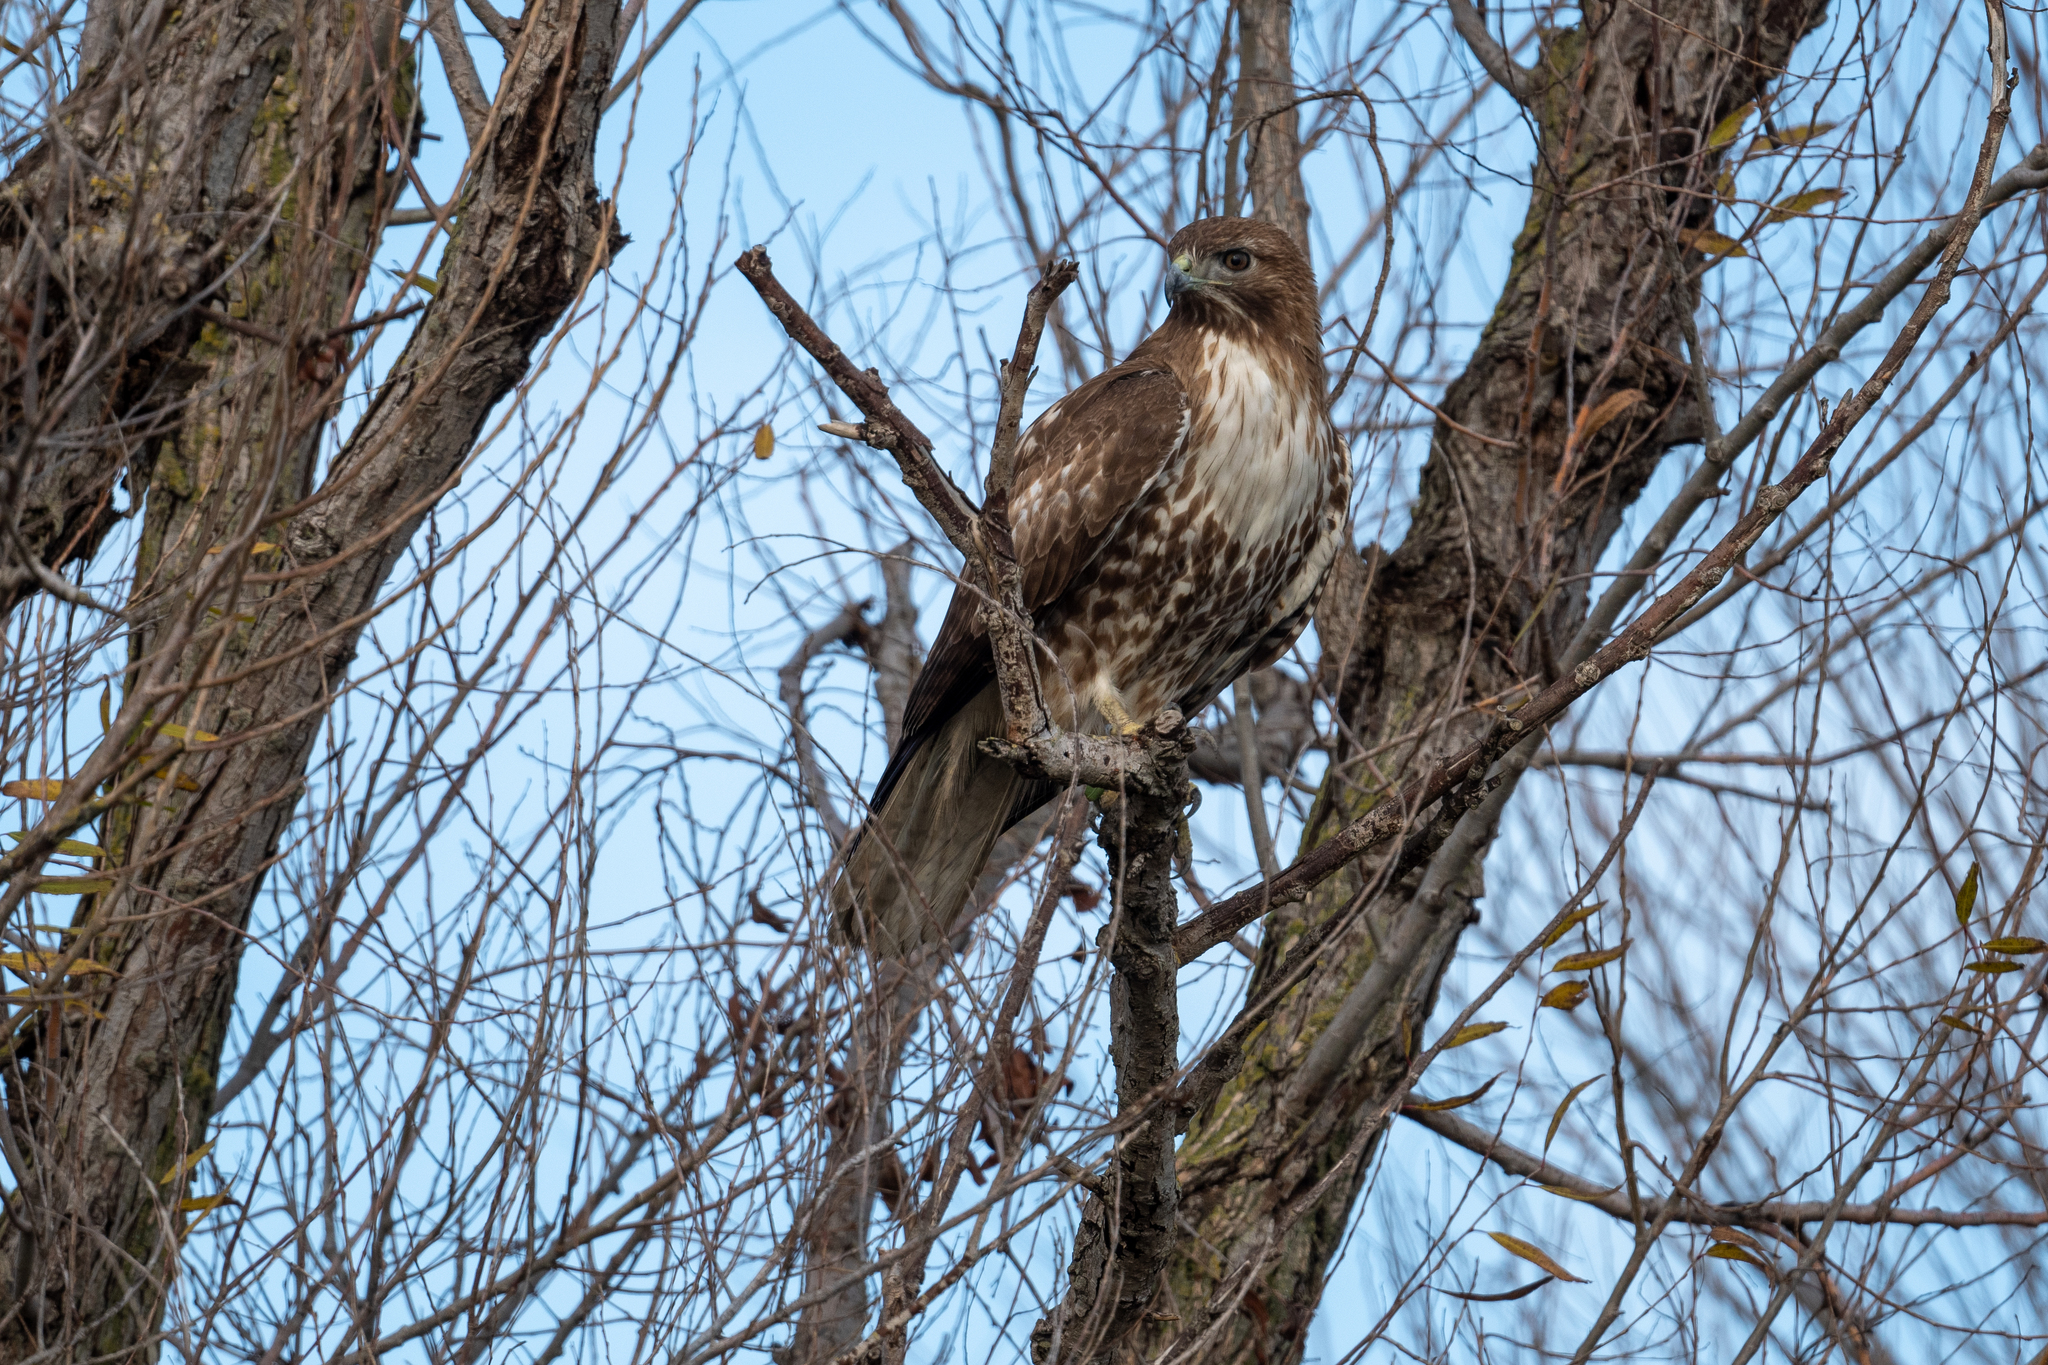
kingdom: Animalia
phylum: Chordata
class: Aves
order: Accipitriformes
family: Accipitridae
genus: Buteo
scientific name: Buteo jamaicensis
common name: Red-tailed hawk
